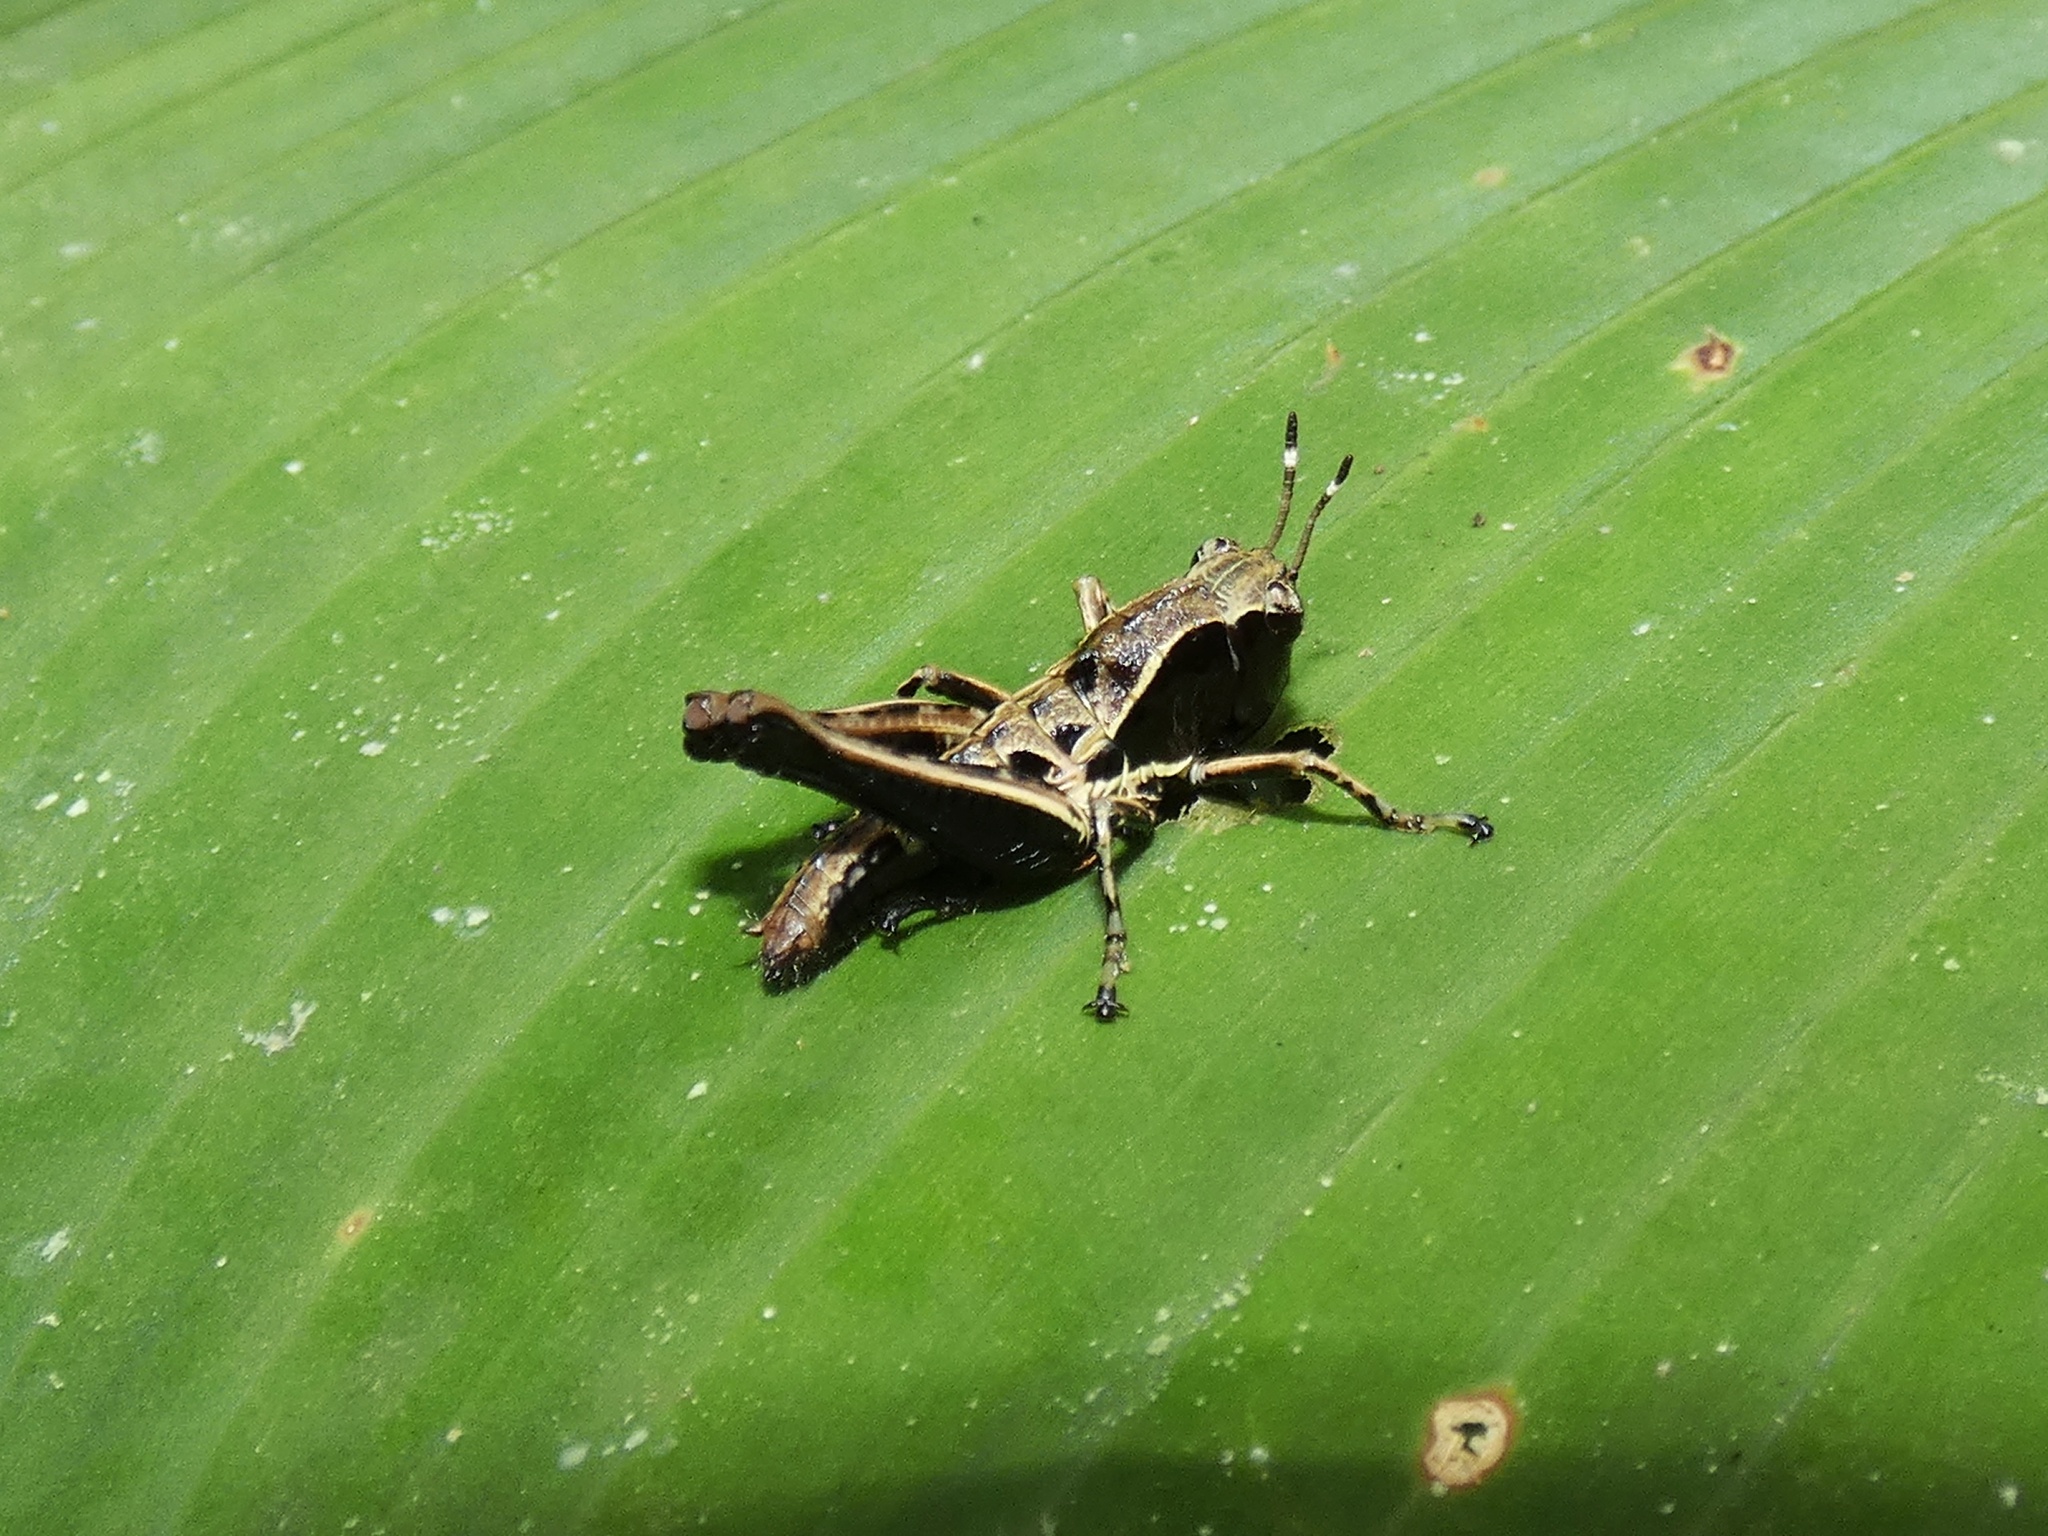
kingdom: Animalia
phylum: Arthropoda
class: Insecta
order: Orthoptera
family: Acrididae
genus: Microtylopteryx
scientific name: Microtylopteryx hebardi
